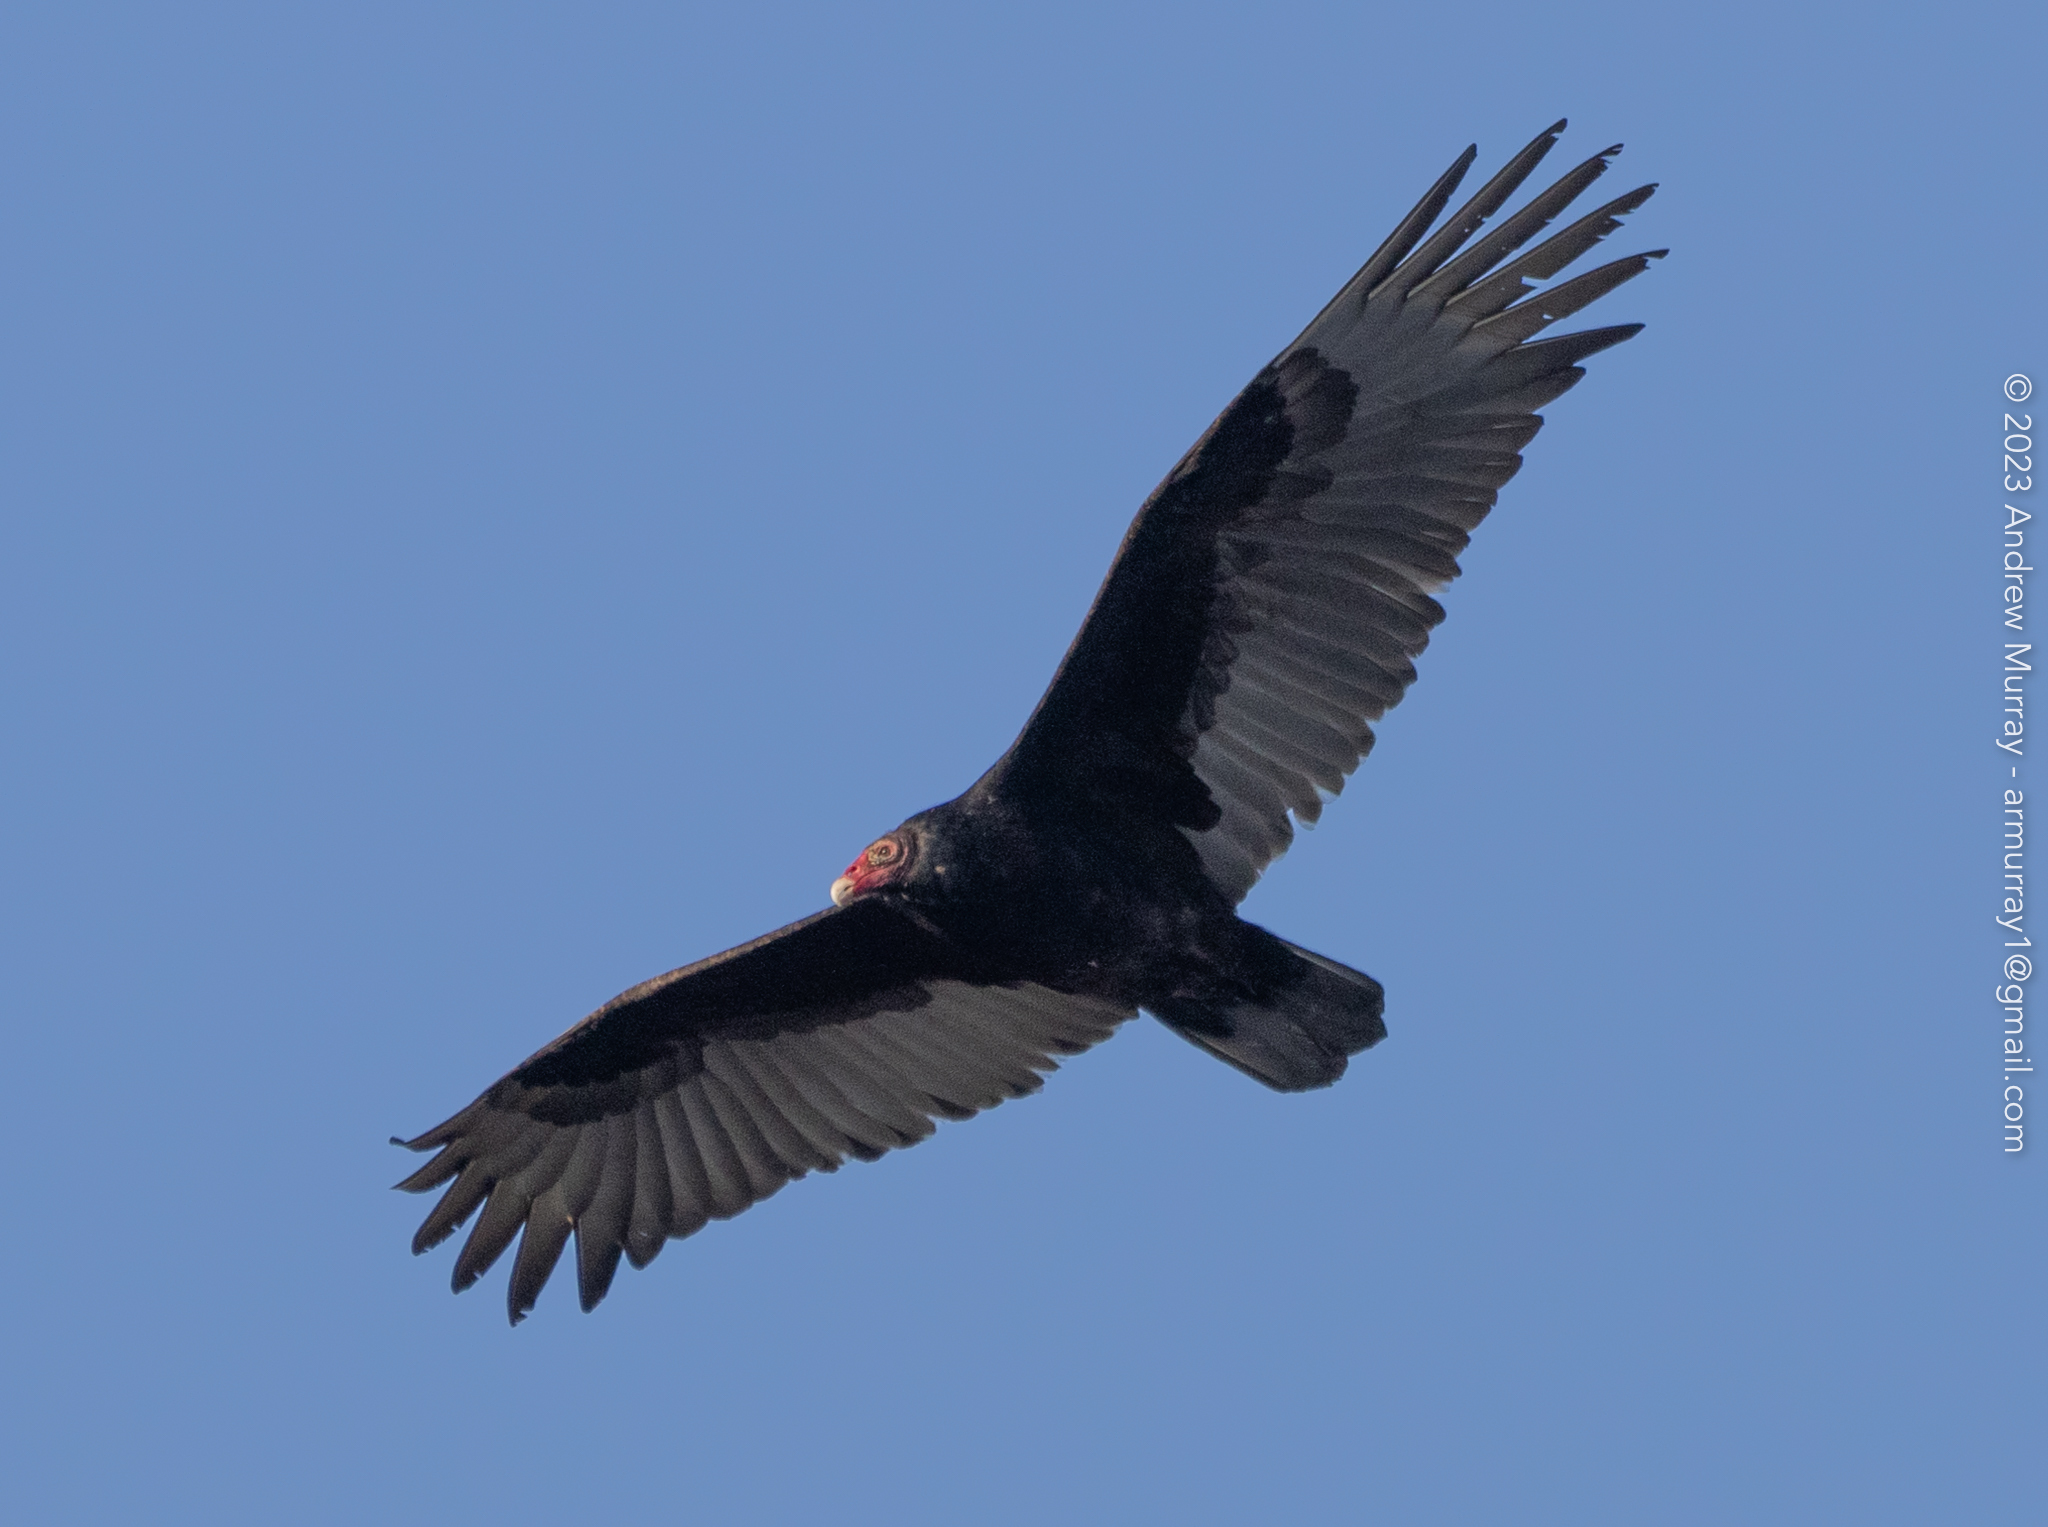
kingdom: Animalia
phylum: Chordata
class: Aves
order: Accipitriformes
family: Cathartidae
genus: Cathartes
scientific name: Cathartes aura
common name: Turkey vulture
